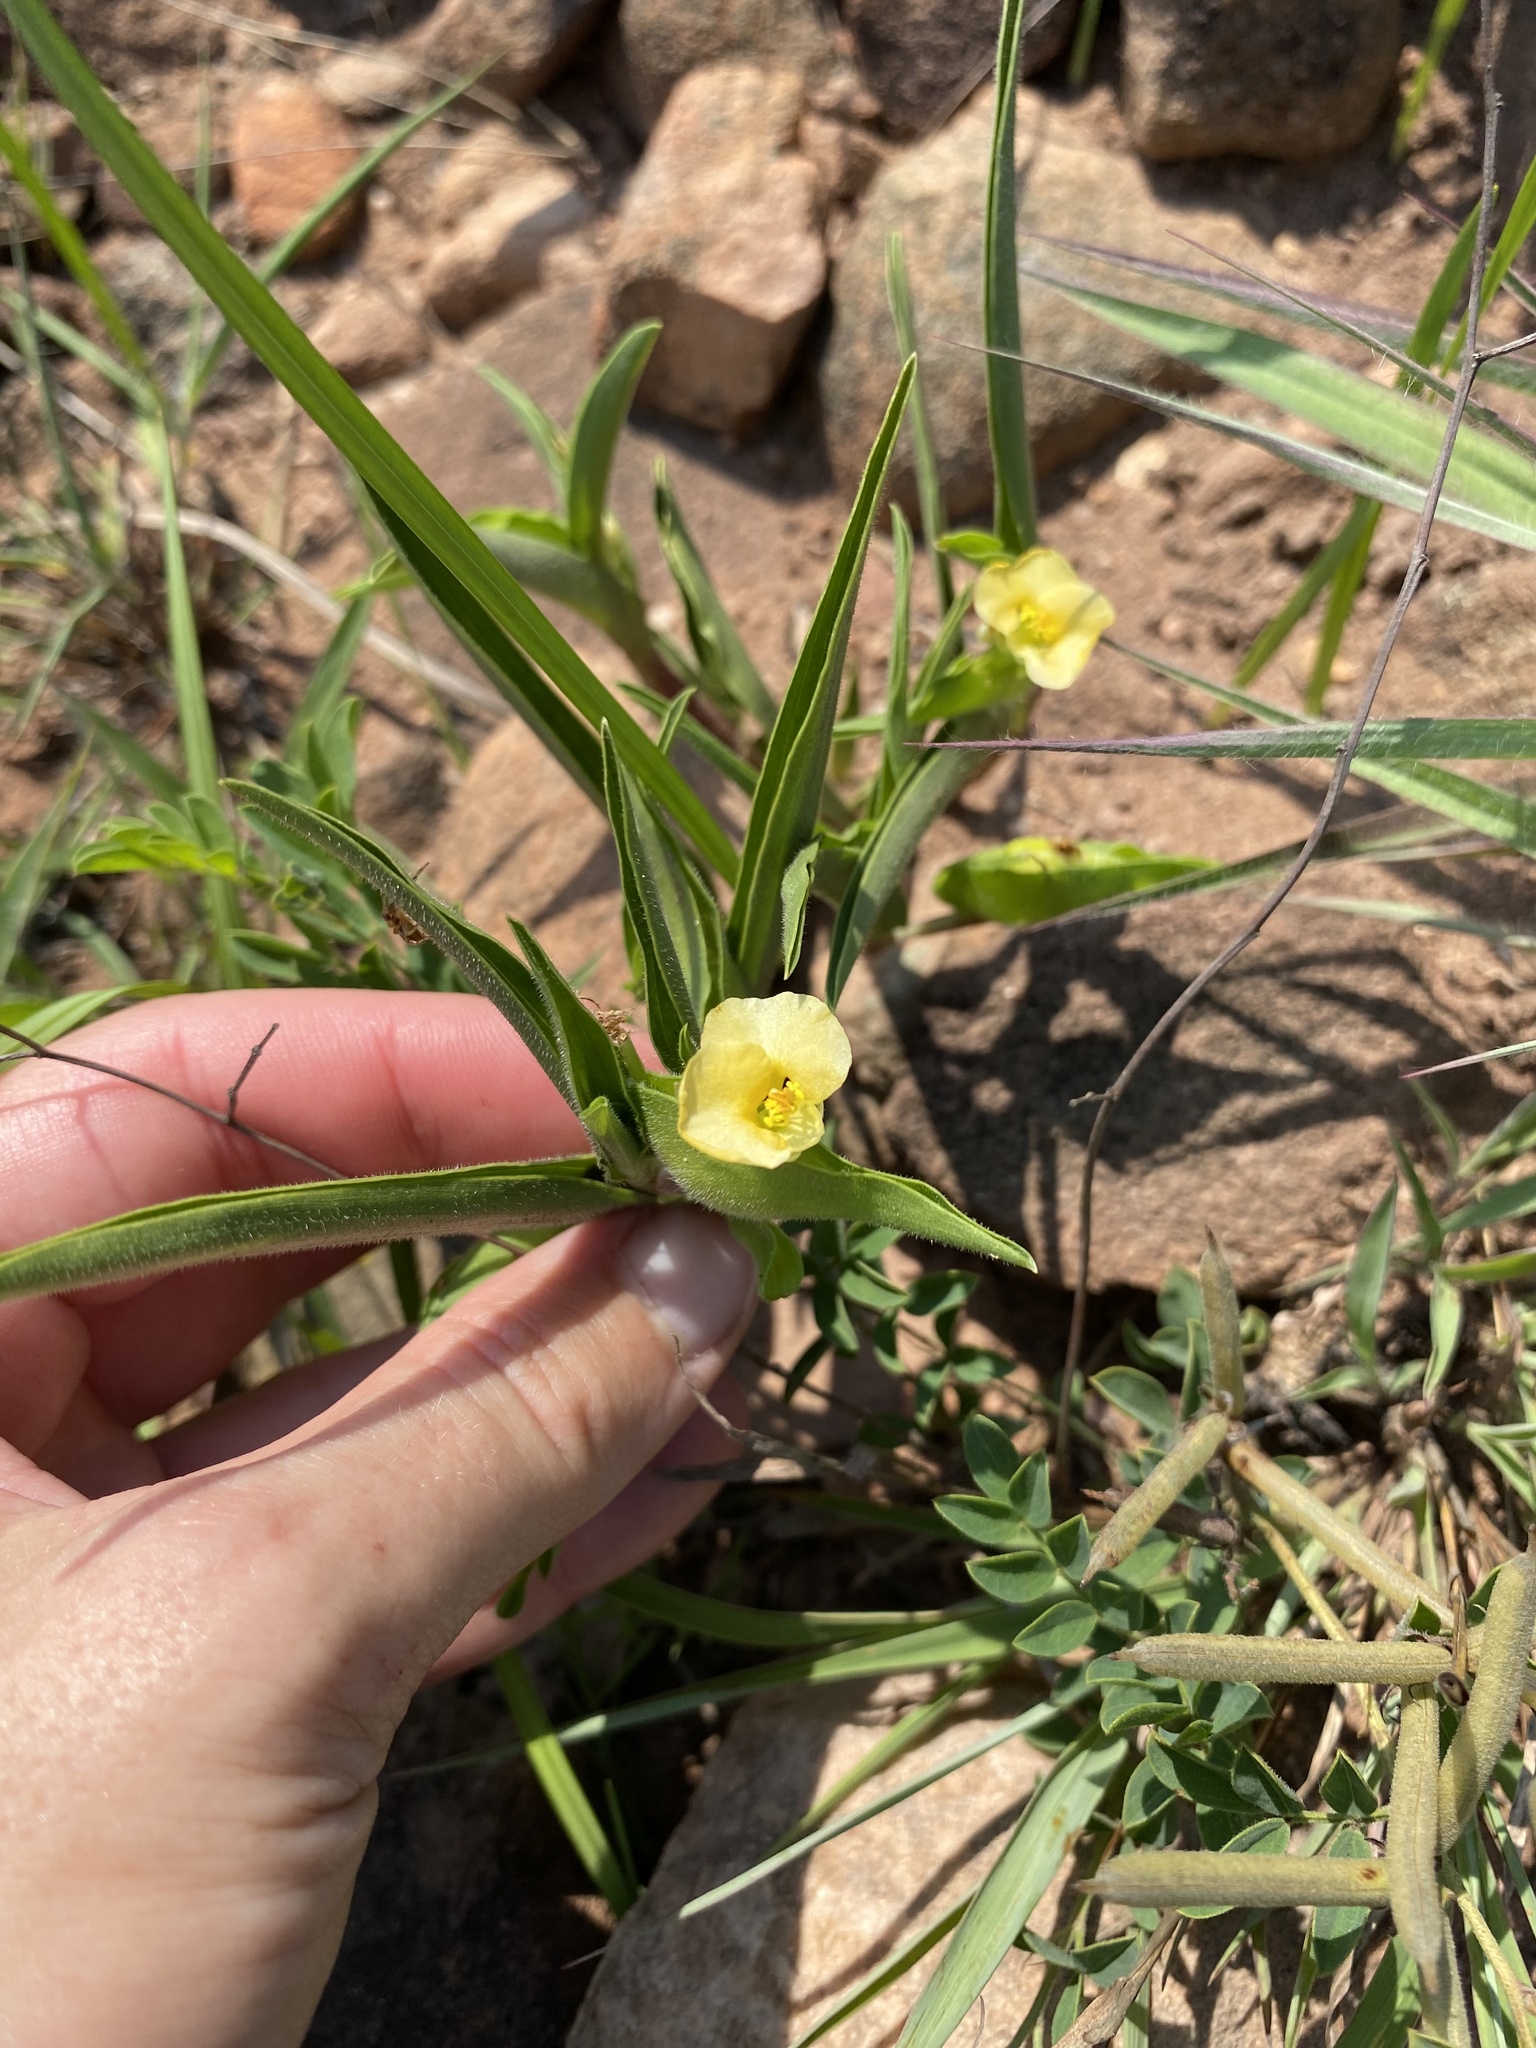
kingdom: Plantae
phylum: Tracheophyta
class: Liliopsida
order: Commelinales
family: Commelinaceae
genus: Commelina
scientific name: Commelina africana
